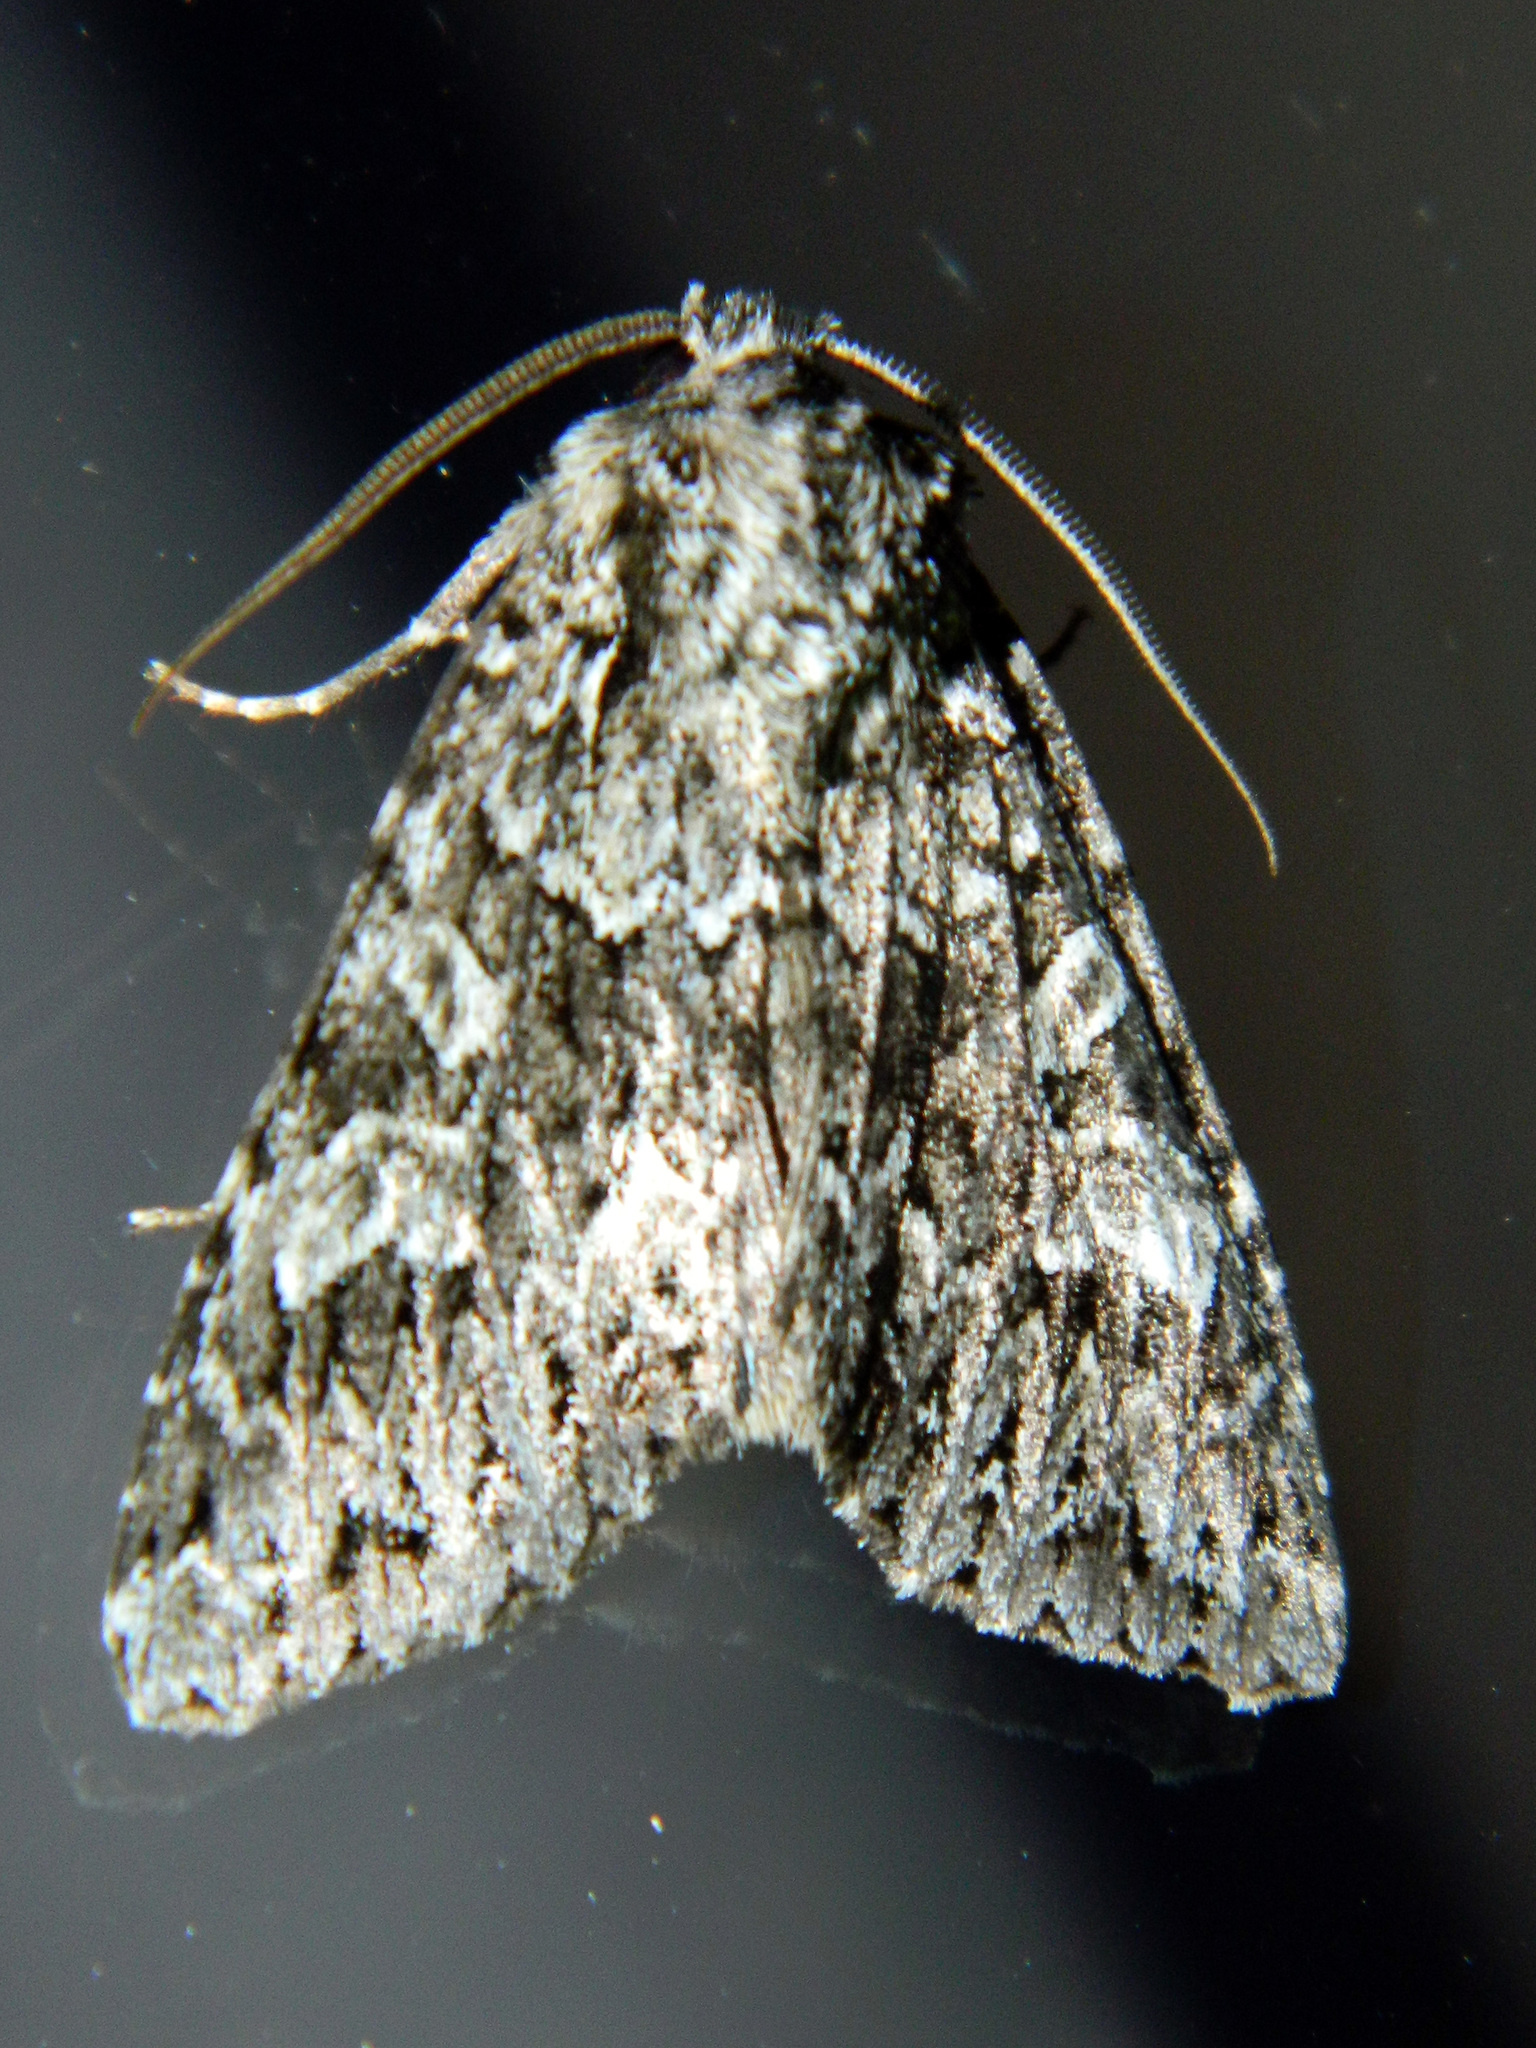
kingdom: Animalia
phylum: Arthropoda
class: Insecta
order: Lepidoptera
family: Noctuidae
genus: Platypolia
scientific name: Platypolia anceps
